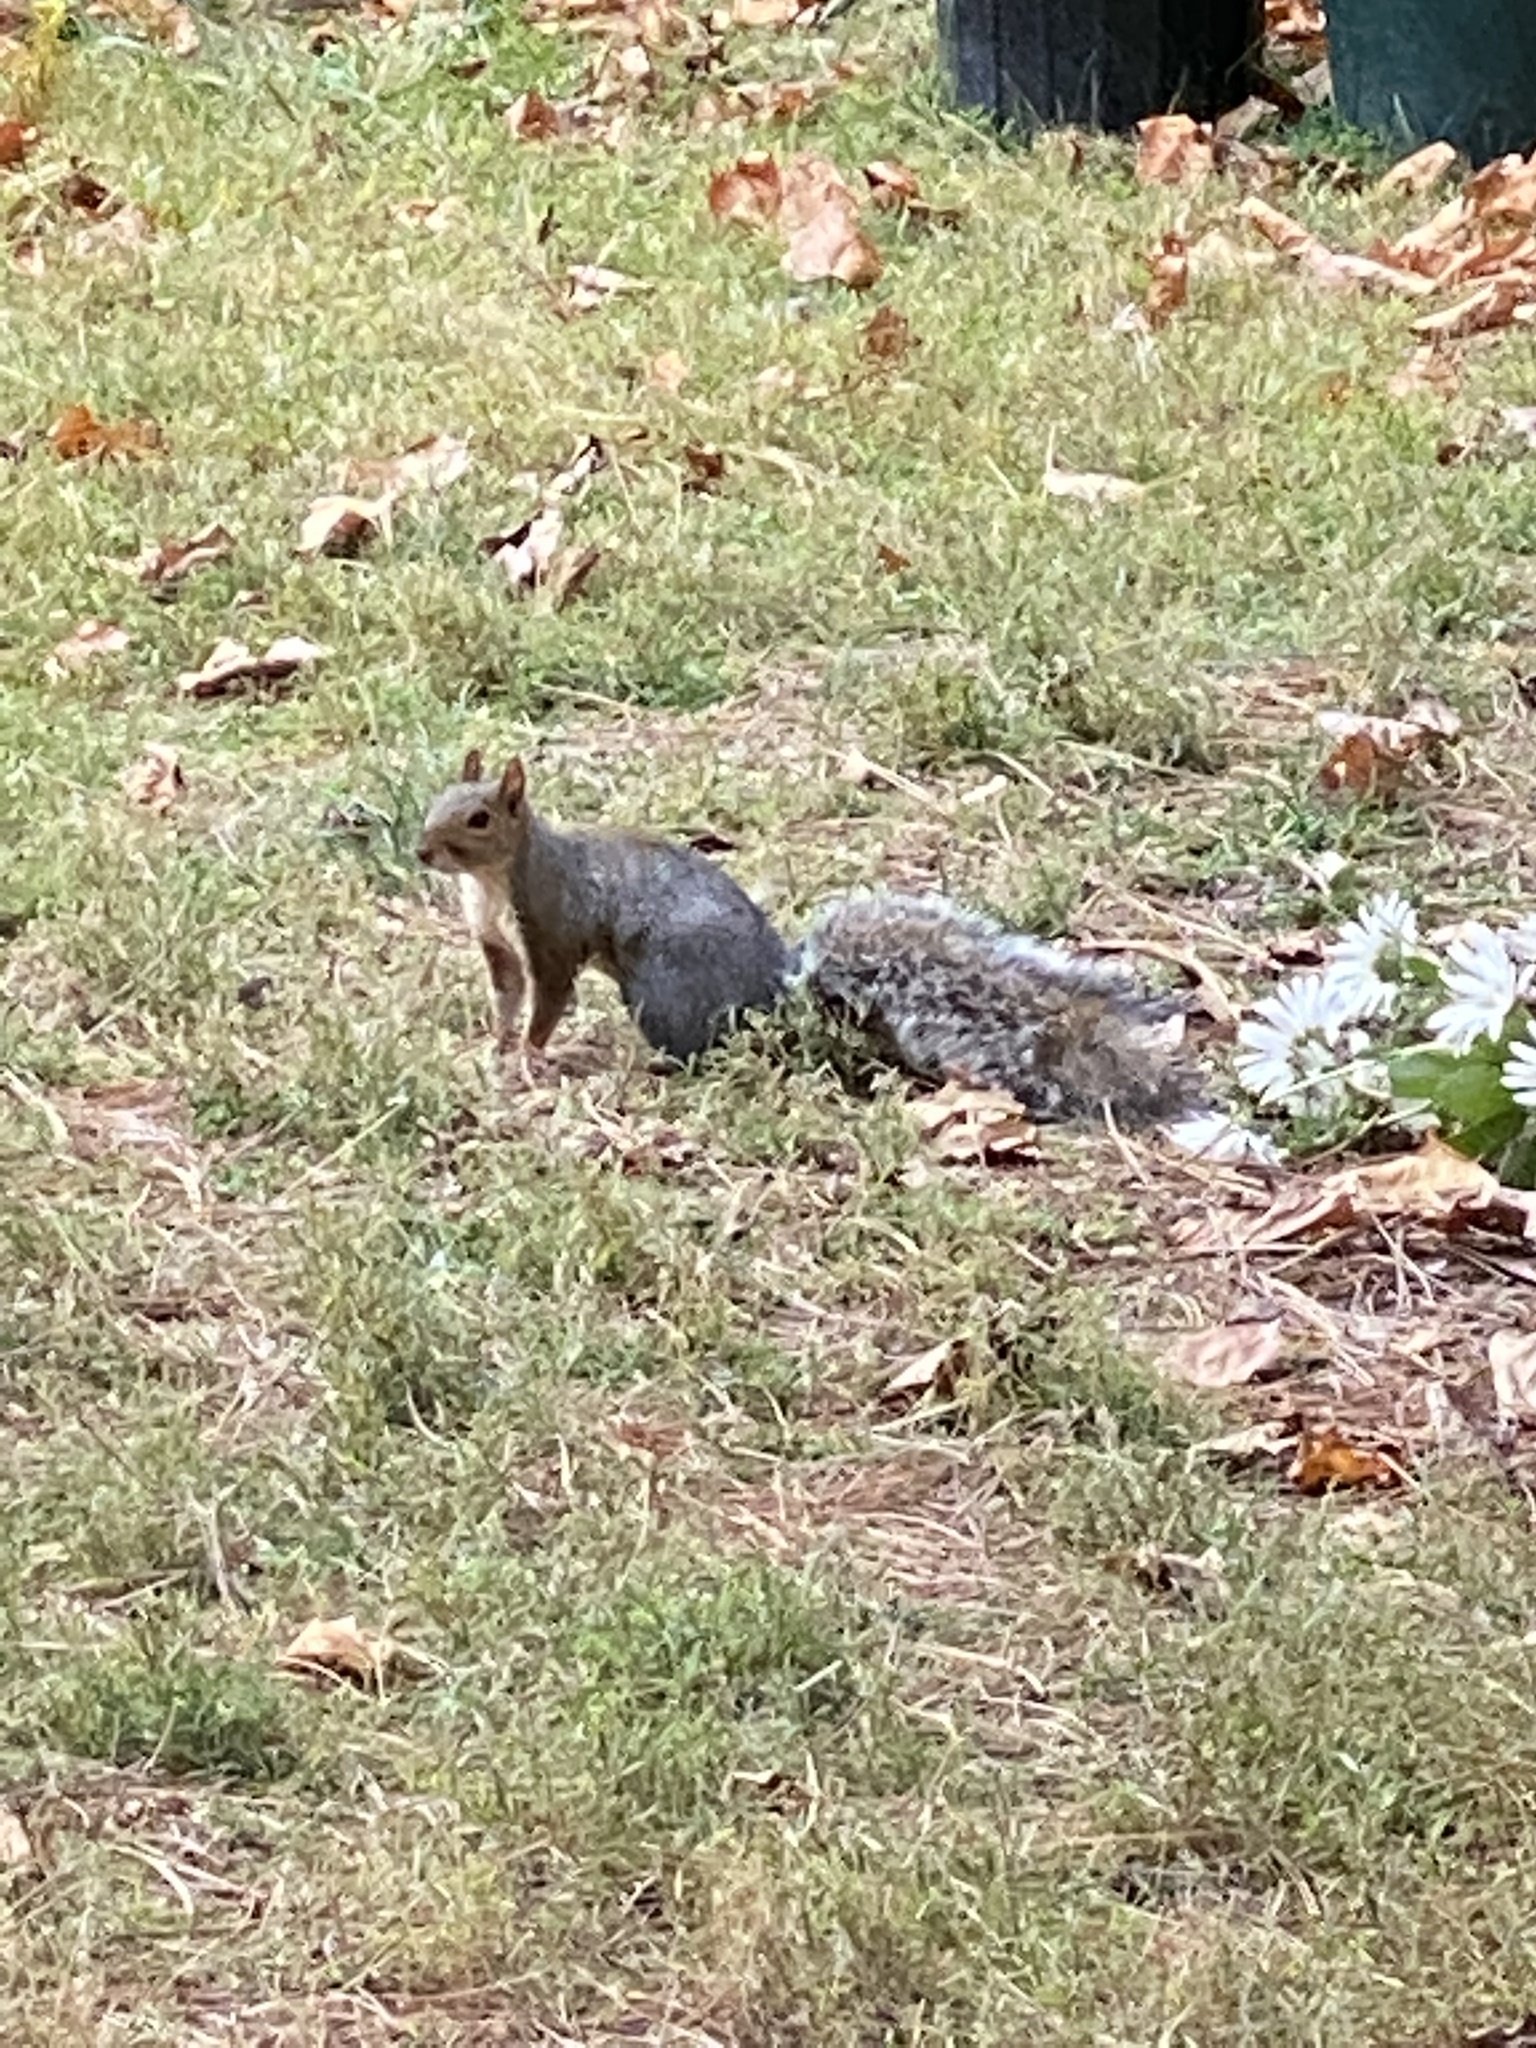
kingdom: Animalia
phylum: Chordata
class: Mammalia
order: Rodentia
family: Sciuridae
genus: Sciurus
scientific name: Sciurus carolinensis
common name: Eastern gray squirrel
